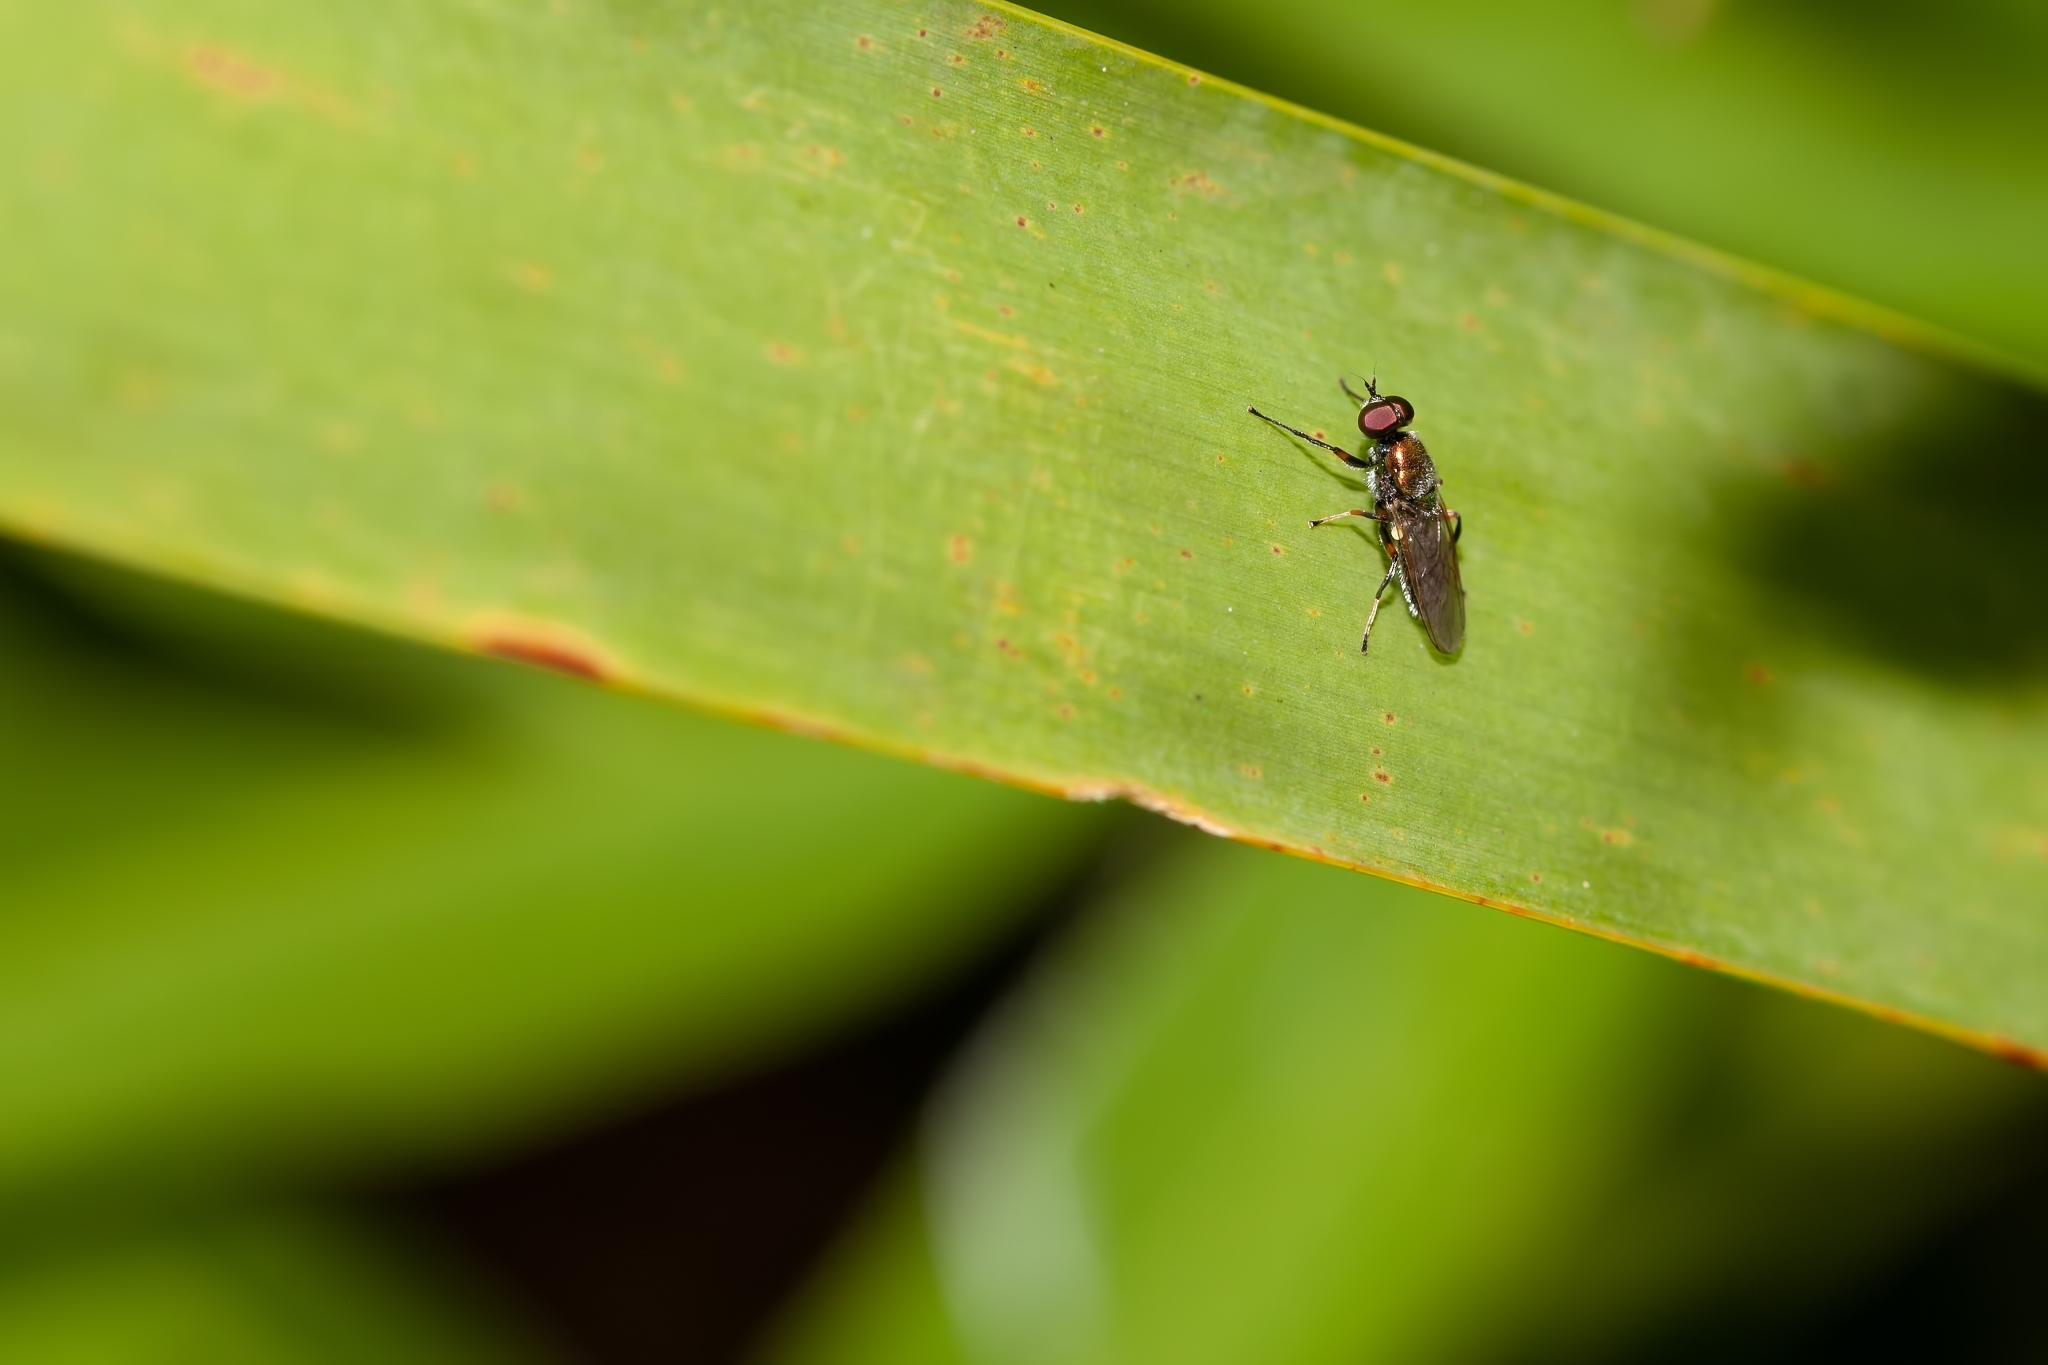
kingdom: Animalia
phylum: Arthropoda
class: Insecta
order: Diptera
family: Stratiomyidae
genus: Nothomyia
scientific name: Nothomyia calopus
